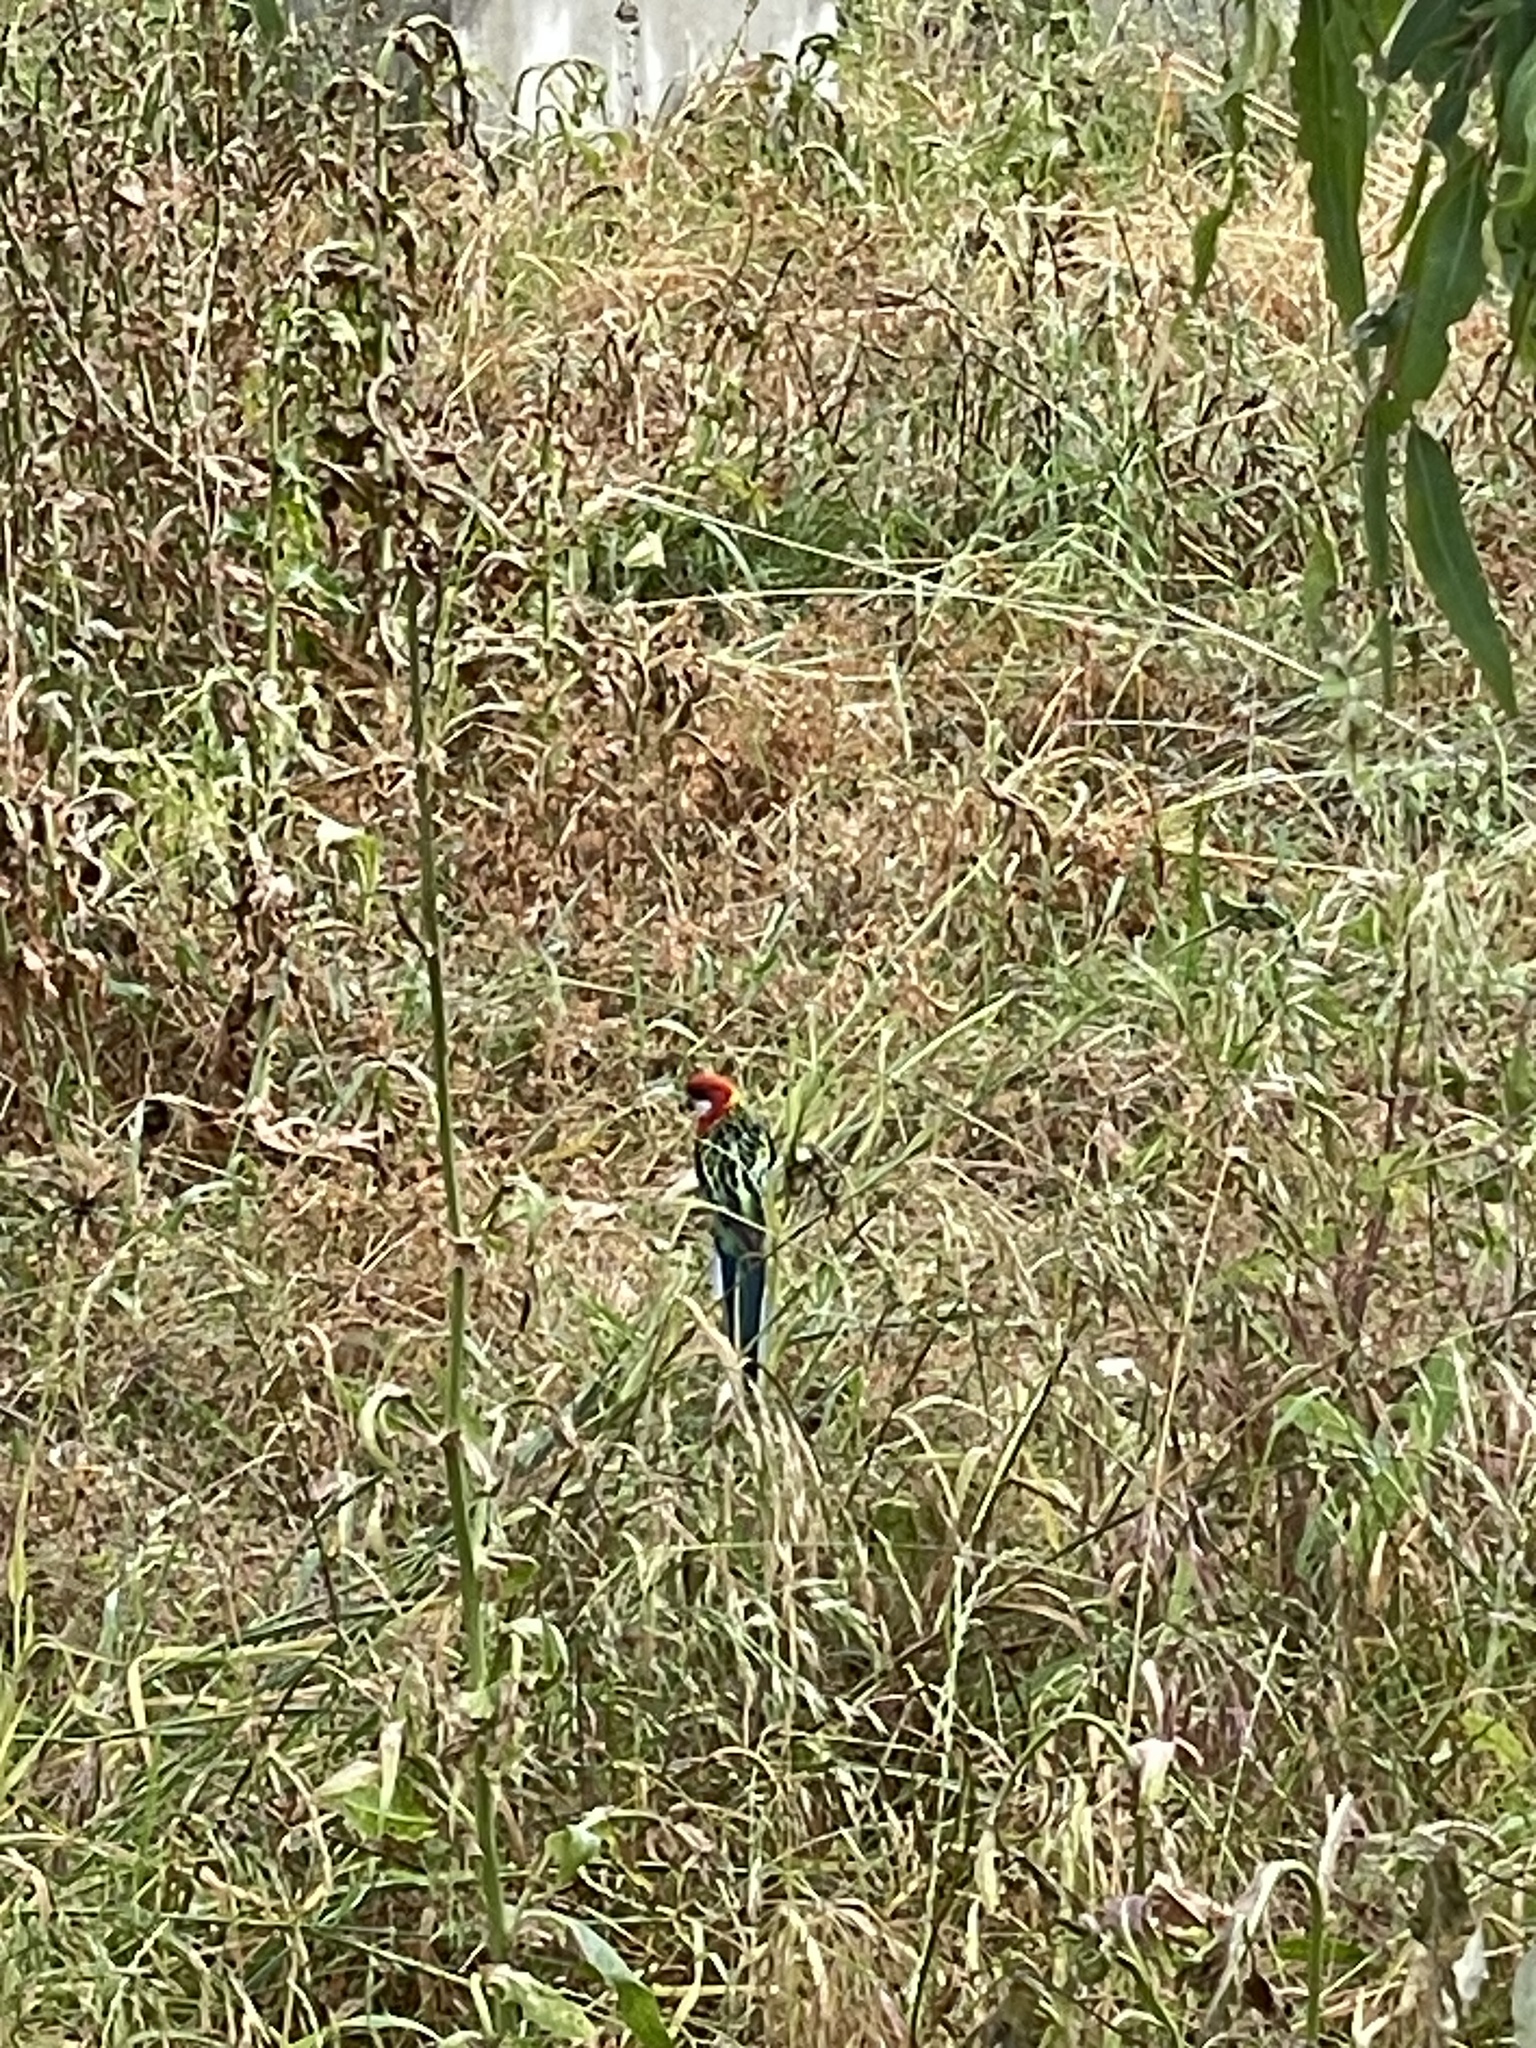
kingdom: Animalia
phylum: Chordata
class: Aves
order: Psittaciformes
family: Psittacidae
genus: Platycercus
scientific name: Platycercus eximius
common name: Eastern rosella
